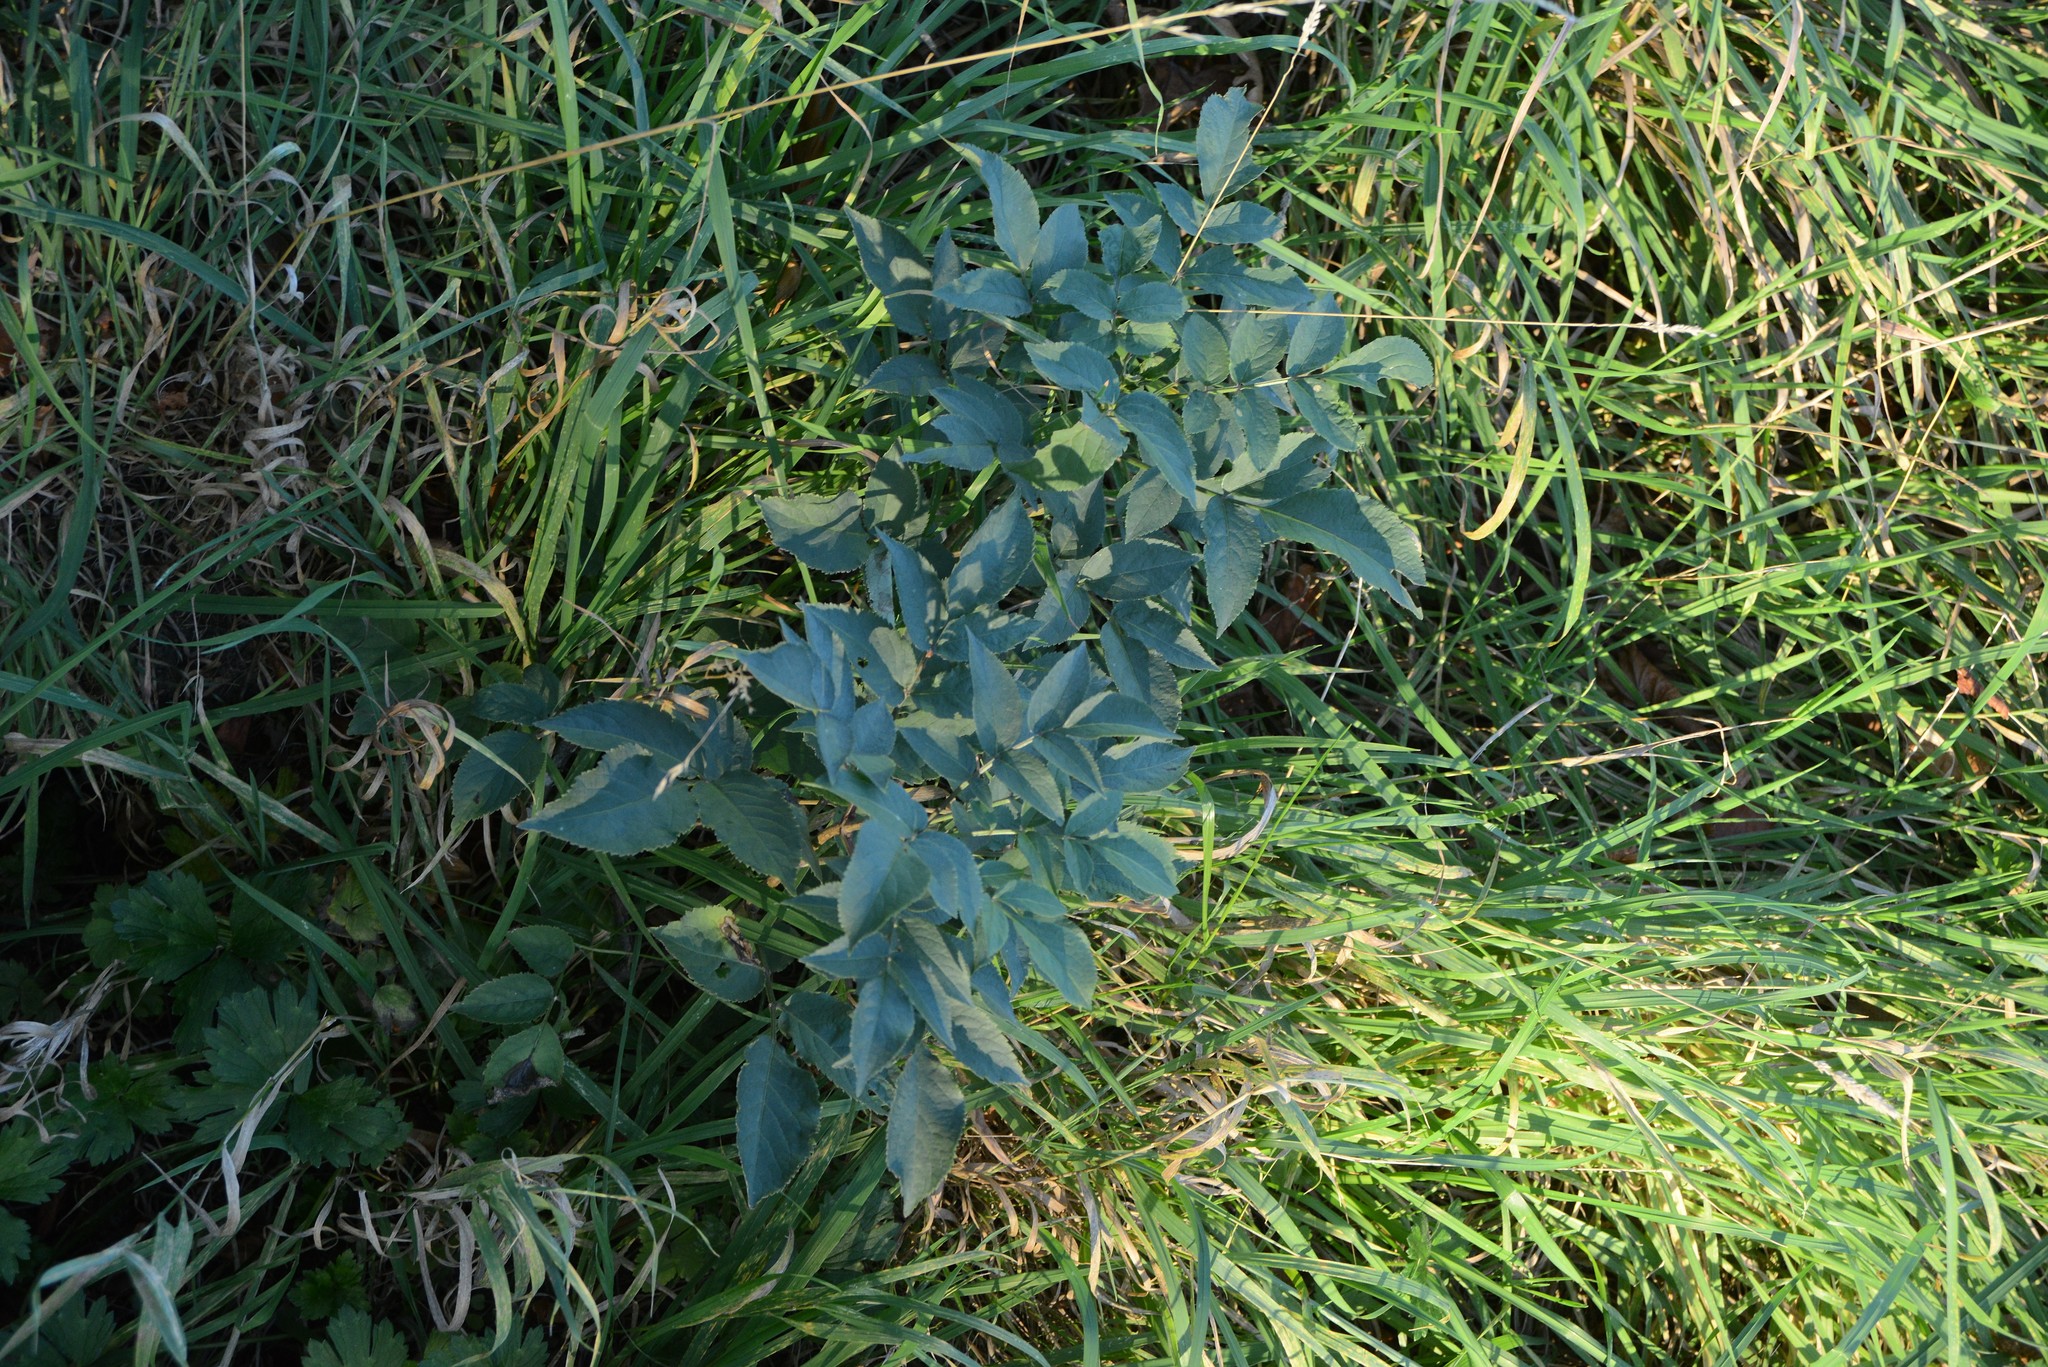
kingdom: Plantae
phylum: Tracheophyta
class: Magnoliopsida
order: Dipsacales
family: Viburnaceae
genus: Sambucus
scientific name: Sambucus nigra
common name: Elder
